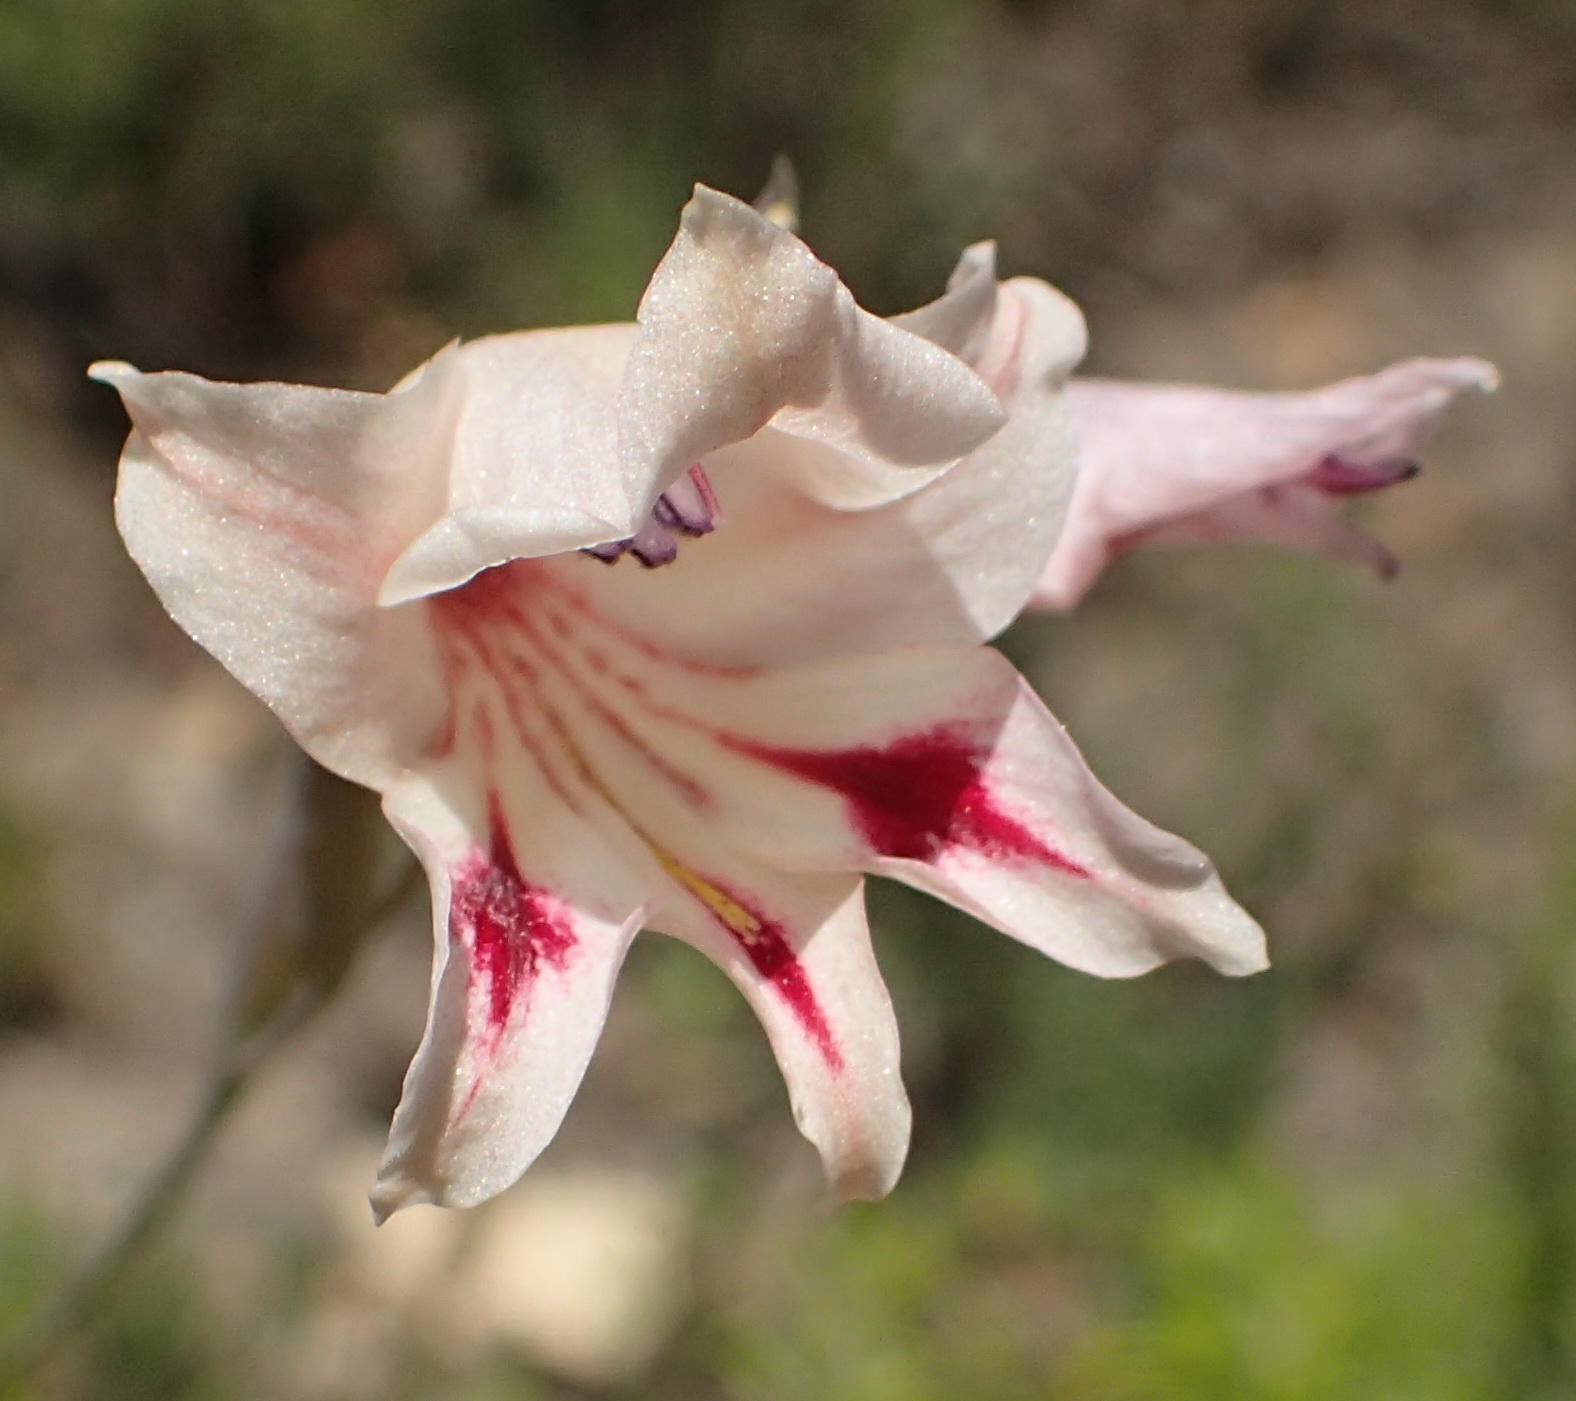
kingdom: Plantae
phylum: Tracheophyta
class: Liliopsida
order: Asparagales
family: Iridaceae
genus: Gladiolus
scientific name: Gladiolus nigromontanus
